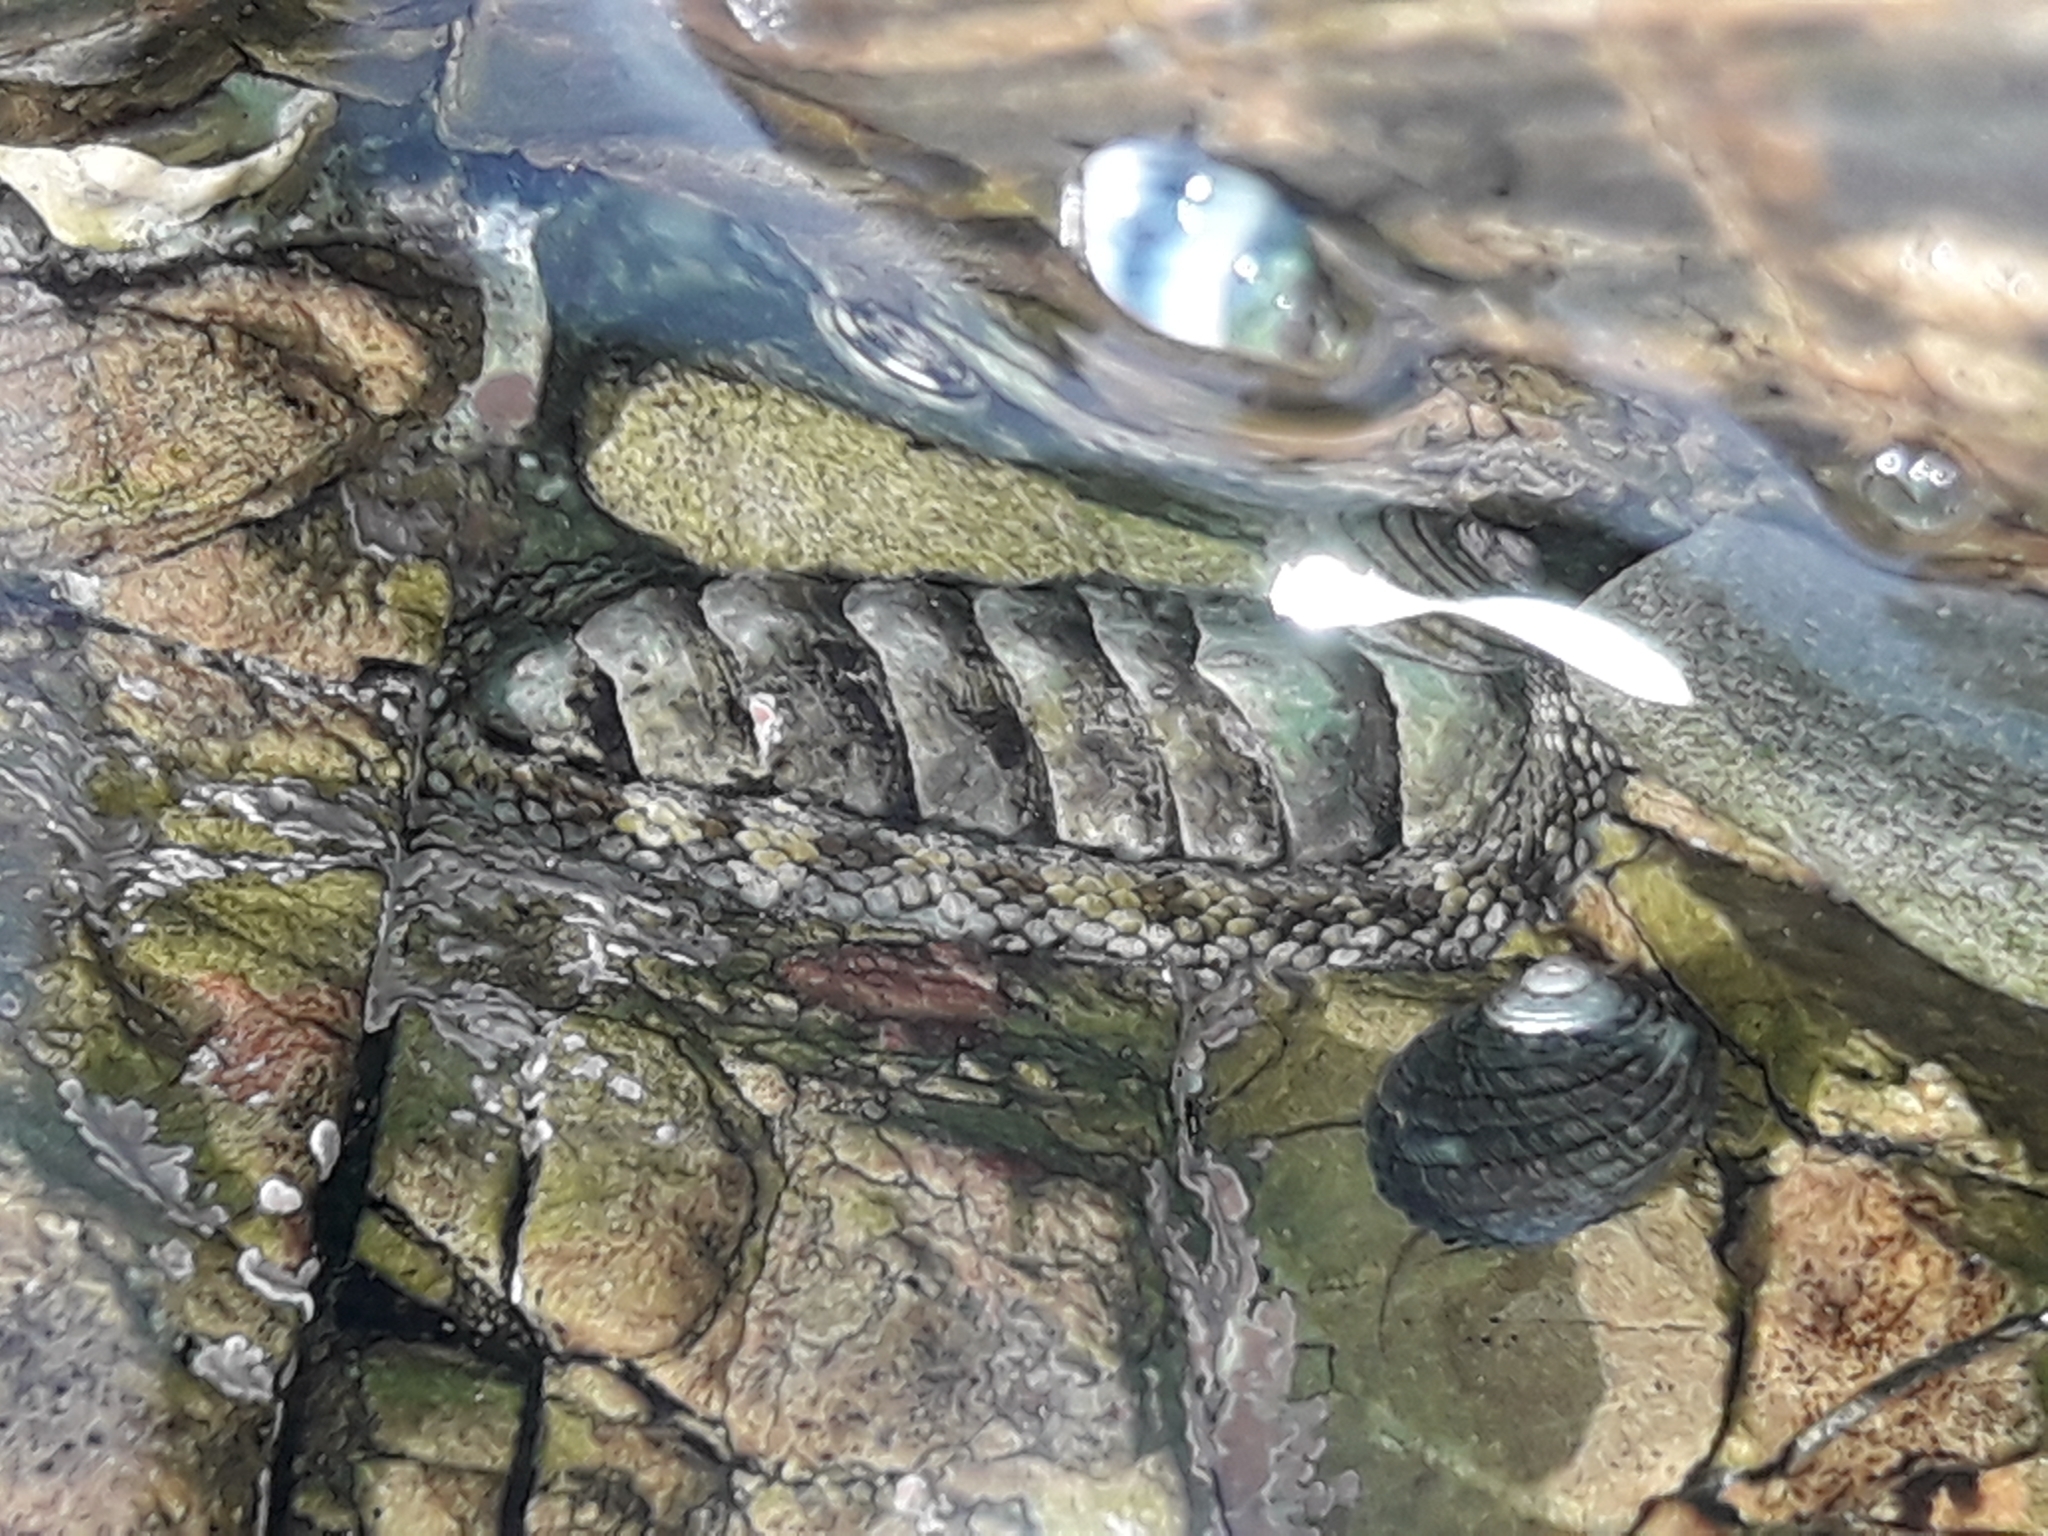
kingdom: Animalia
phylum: Mollusca
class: Polyplacophora
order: Chitonida
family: Chitonidae
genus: Sypharochiton
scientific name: Sypharochiton pelliserpentis
